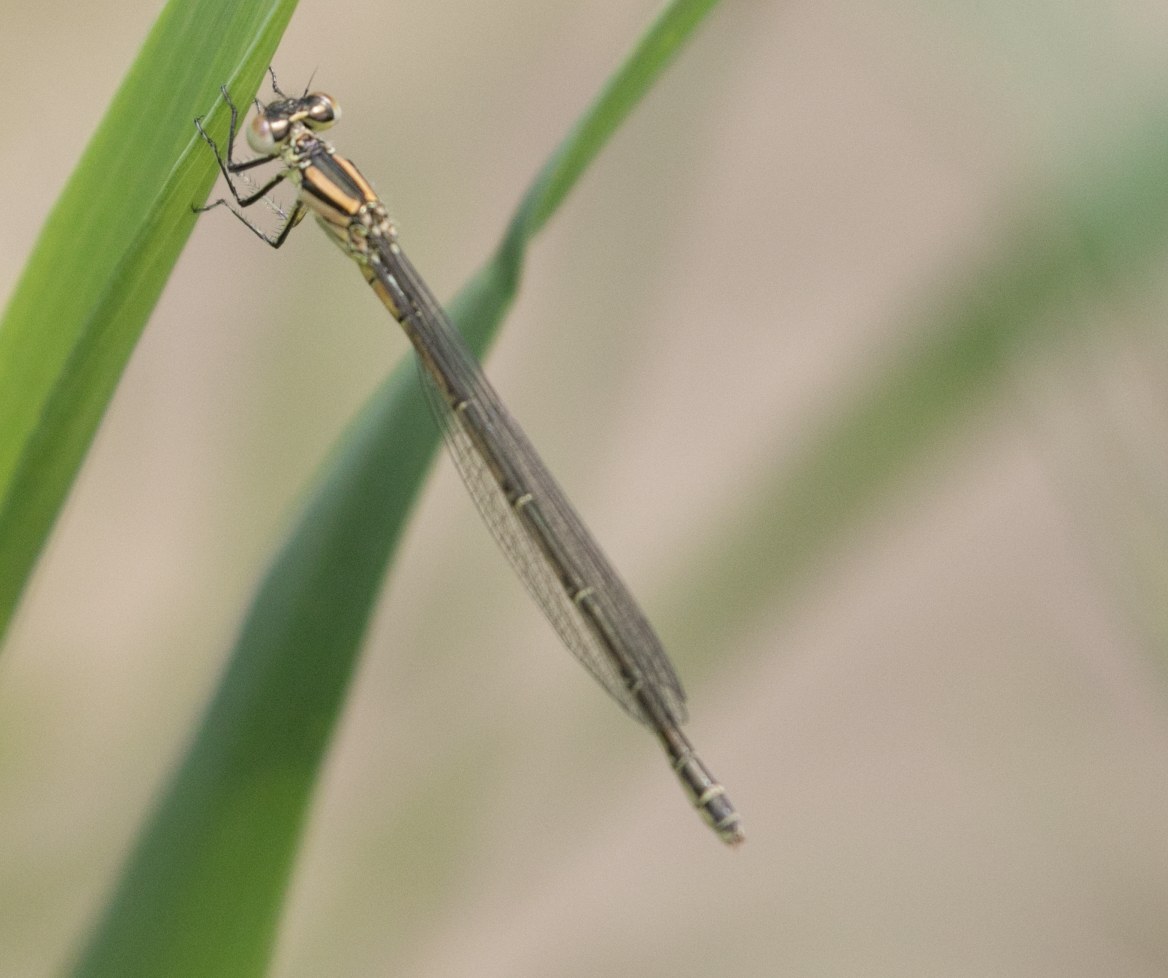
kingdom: Animalia
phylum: Arthropoda
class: Insecta
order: Odonata
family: Coenagrionidae
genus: Erythromma
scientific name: Erythromma lindenii
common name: Blue-eye
